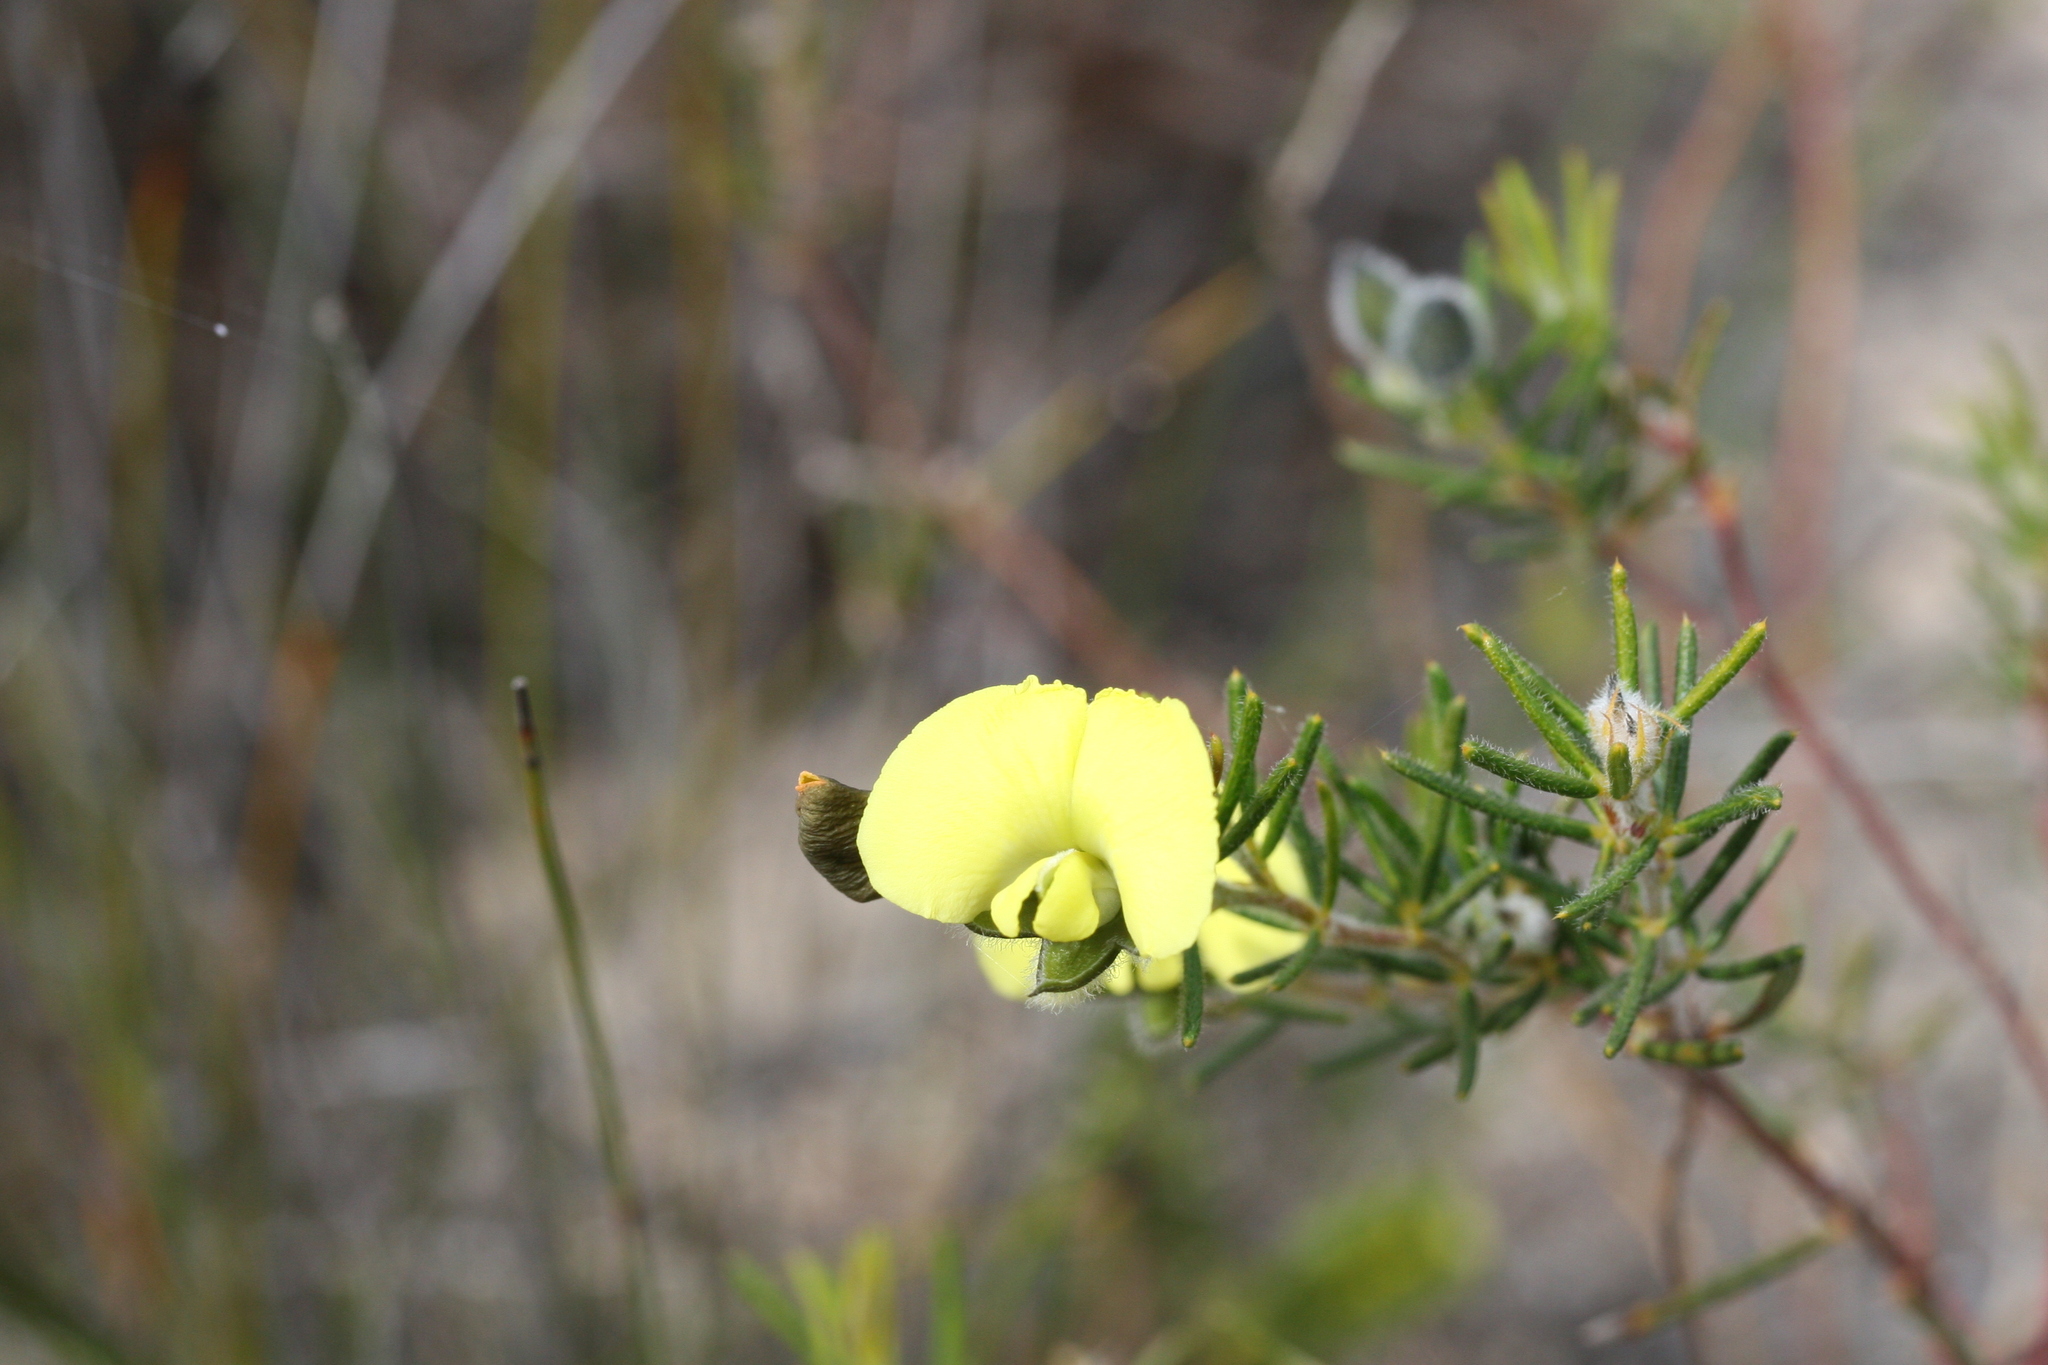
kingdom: Plantae
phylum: Tracheophyta
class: Magnoliopsida
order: Fabales
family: Fabaceae
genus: Gompholobium
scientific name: Gompholobium tomentosum
